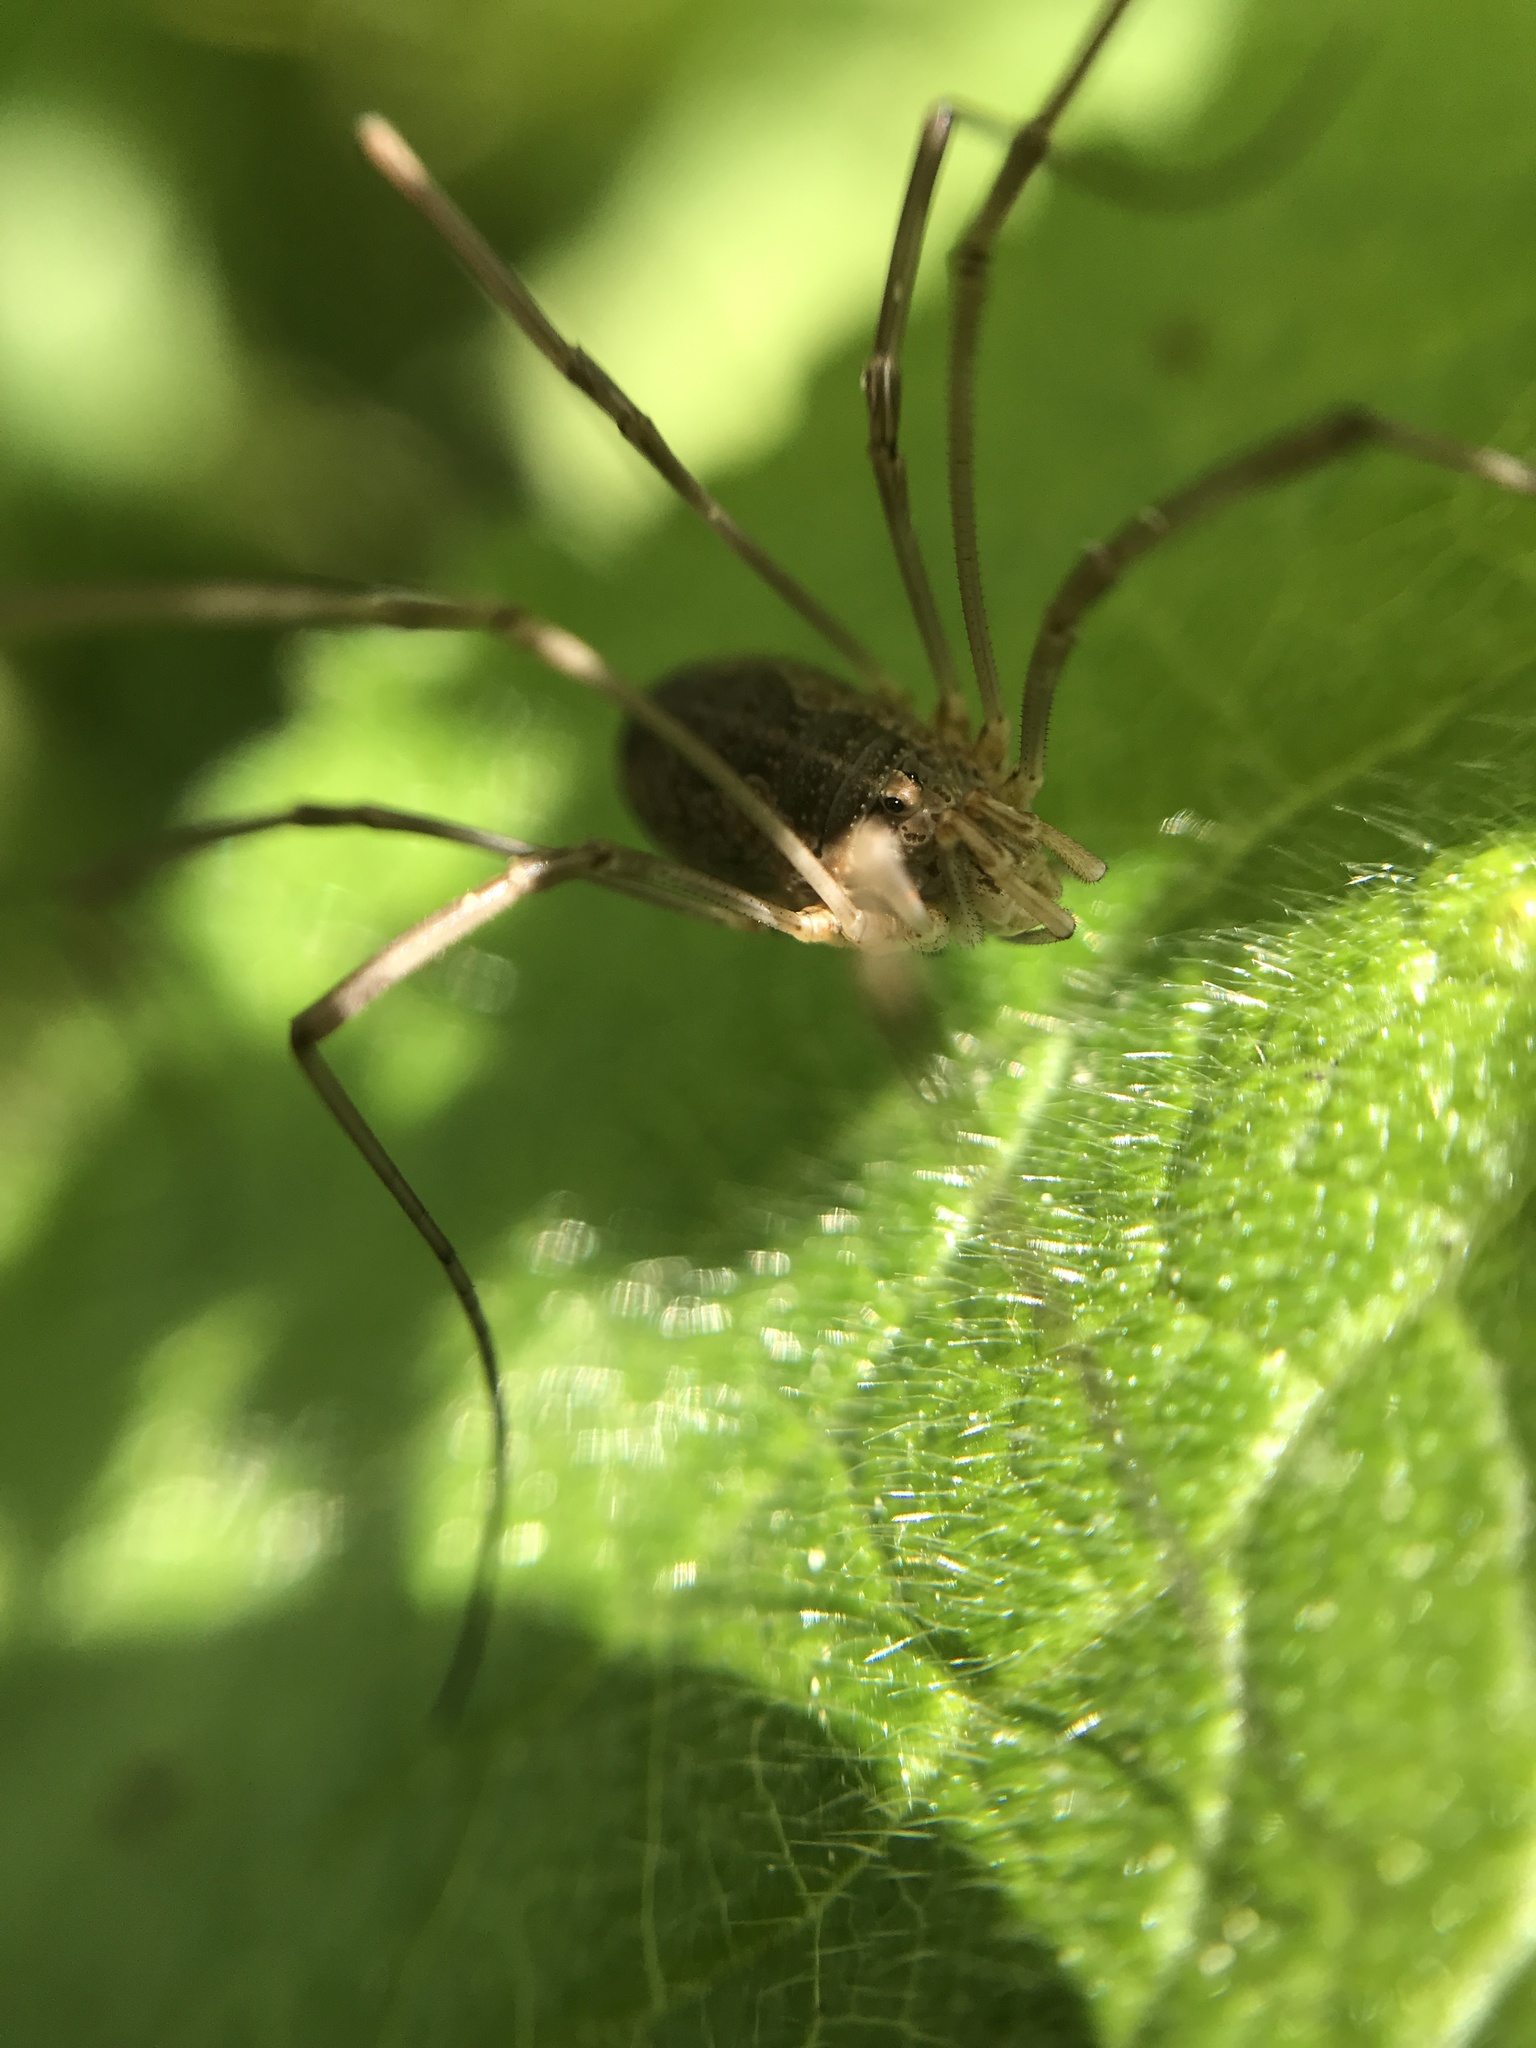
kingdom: Animalia
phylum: Arthropoda
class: Arachnida
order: Opiliones
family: Phalangiidae
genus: Phalangium
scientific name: Phalangium opilio
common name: Daddy longleg
